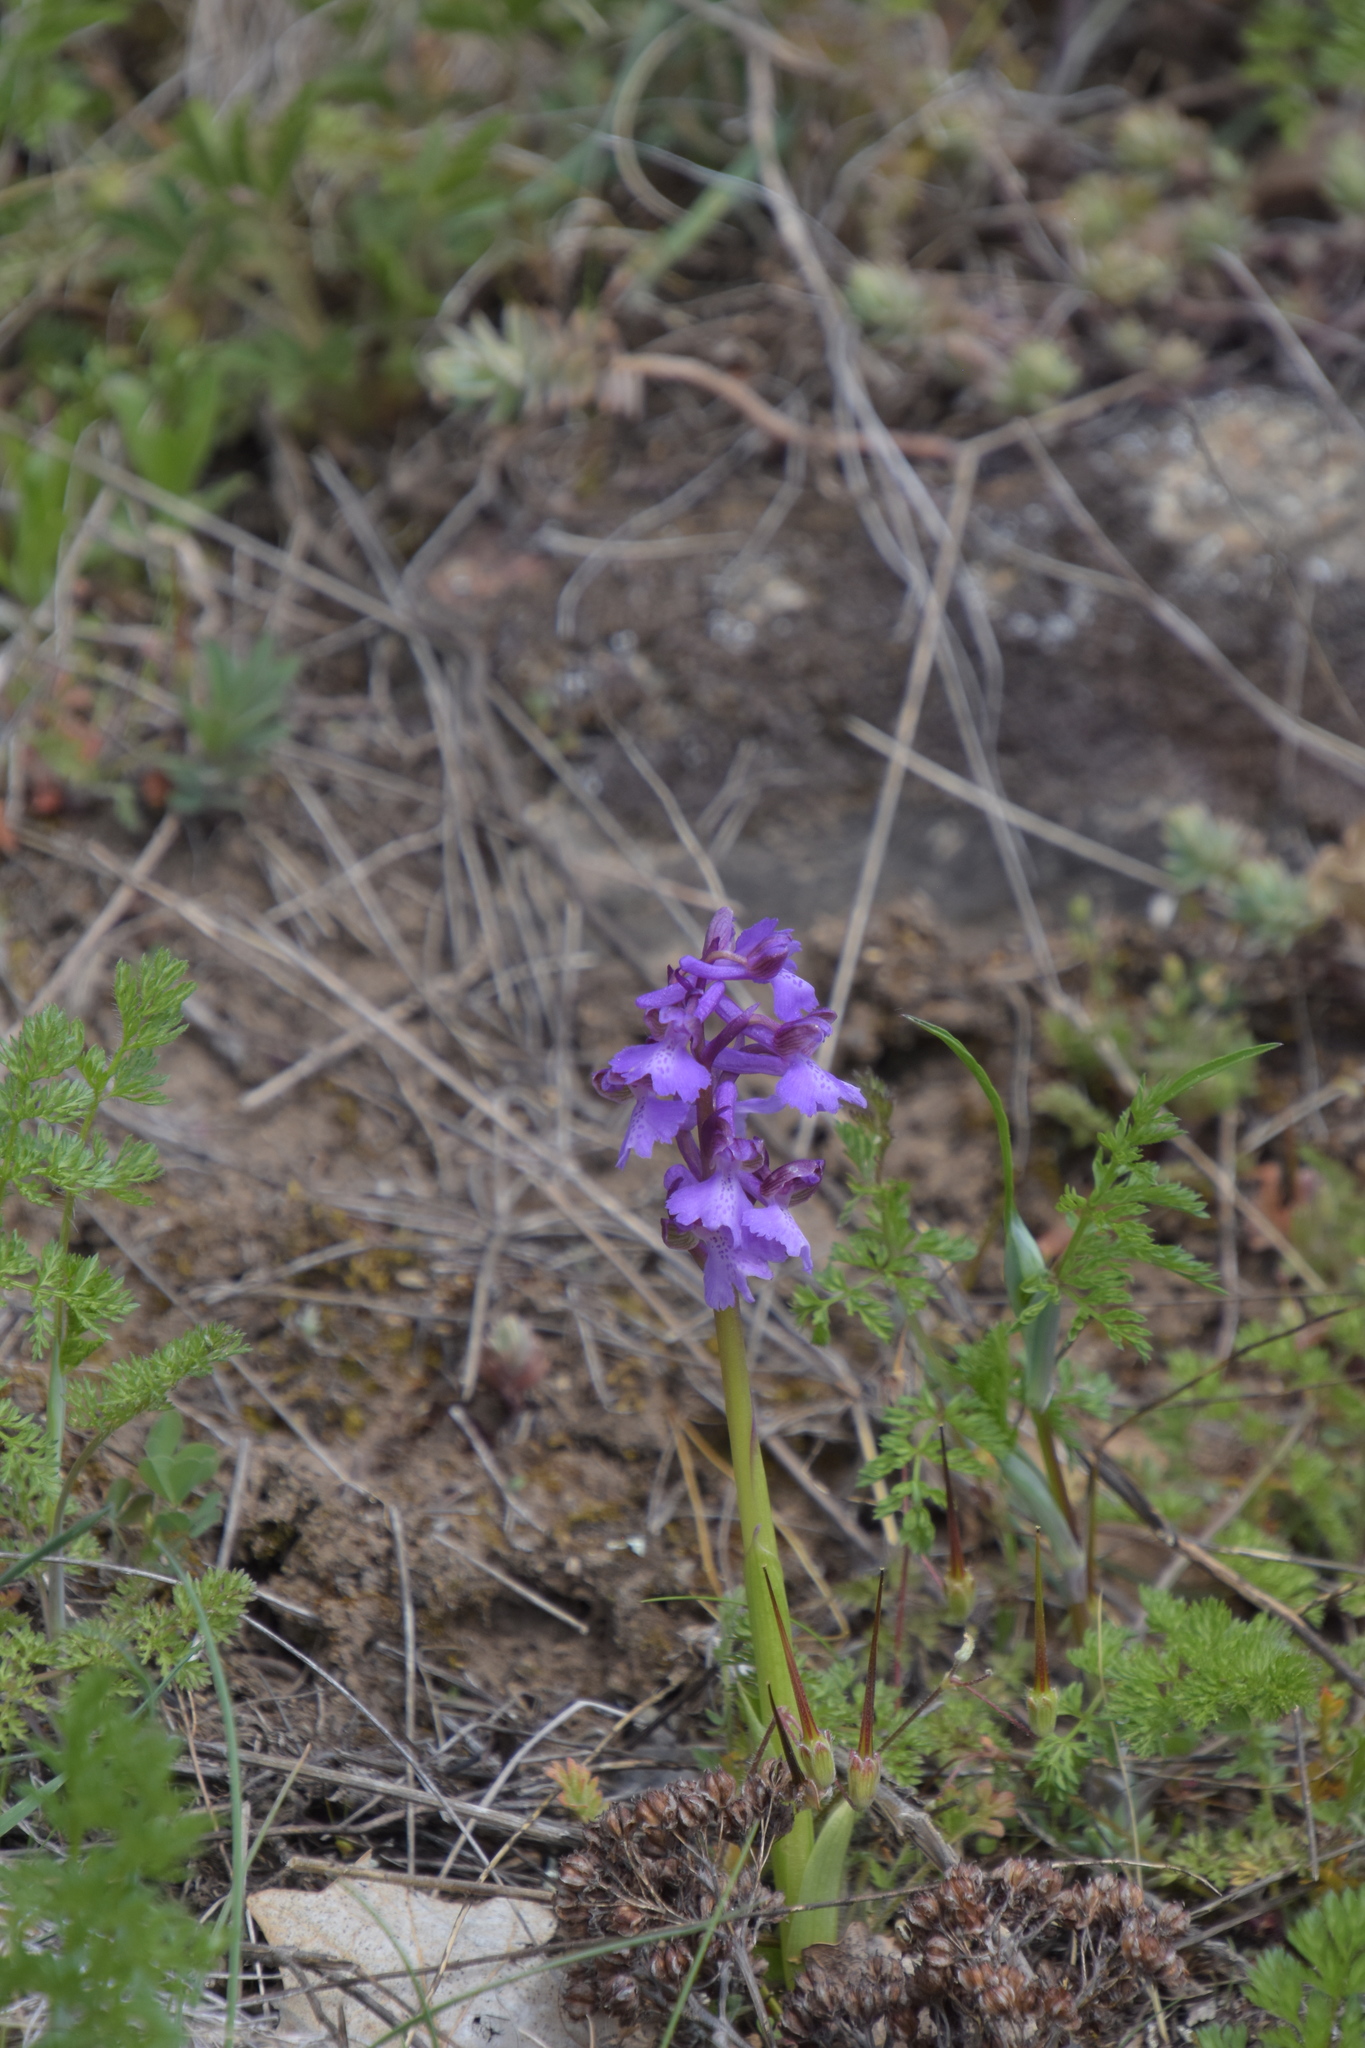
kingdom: Plantae
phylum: Tracheophyta
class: Liliopsida
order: Asparagales
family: Orchidaceae
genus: Anacamptis
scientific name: Anacamptis morio
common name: Green-winged orchid
